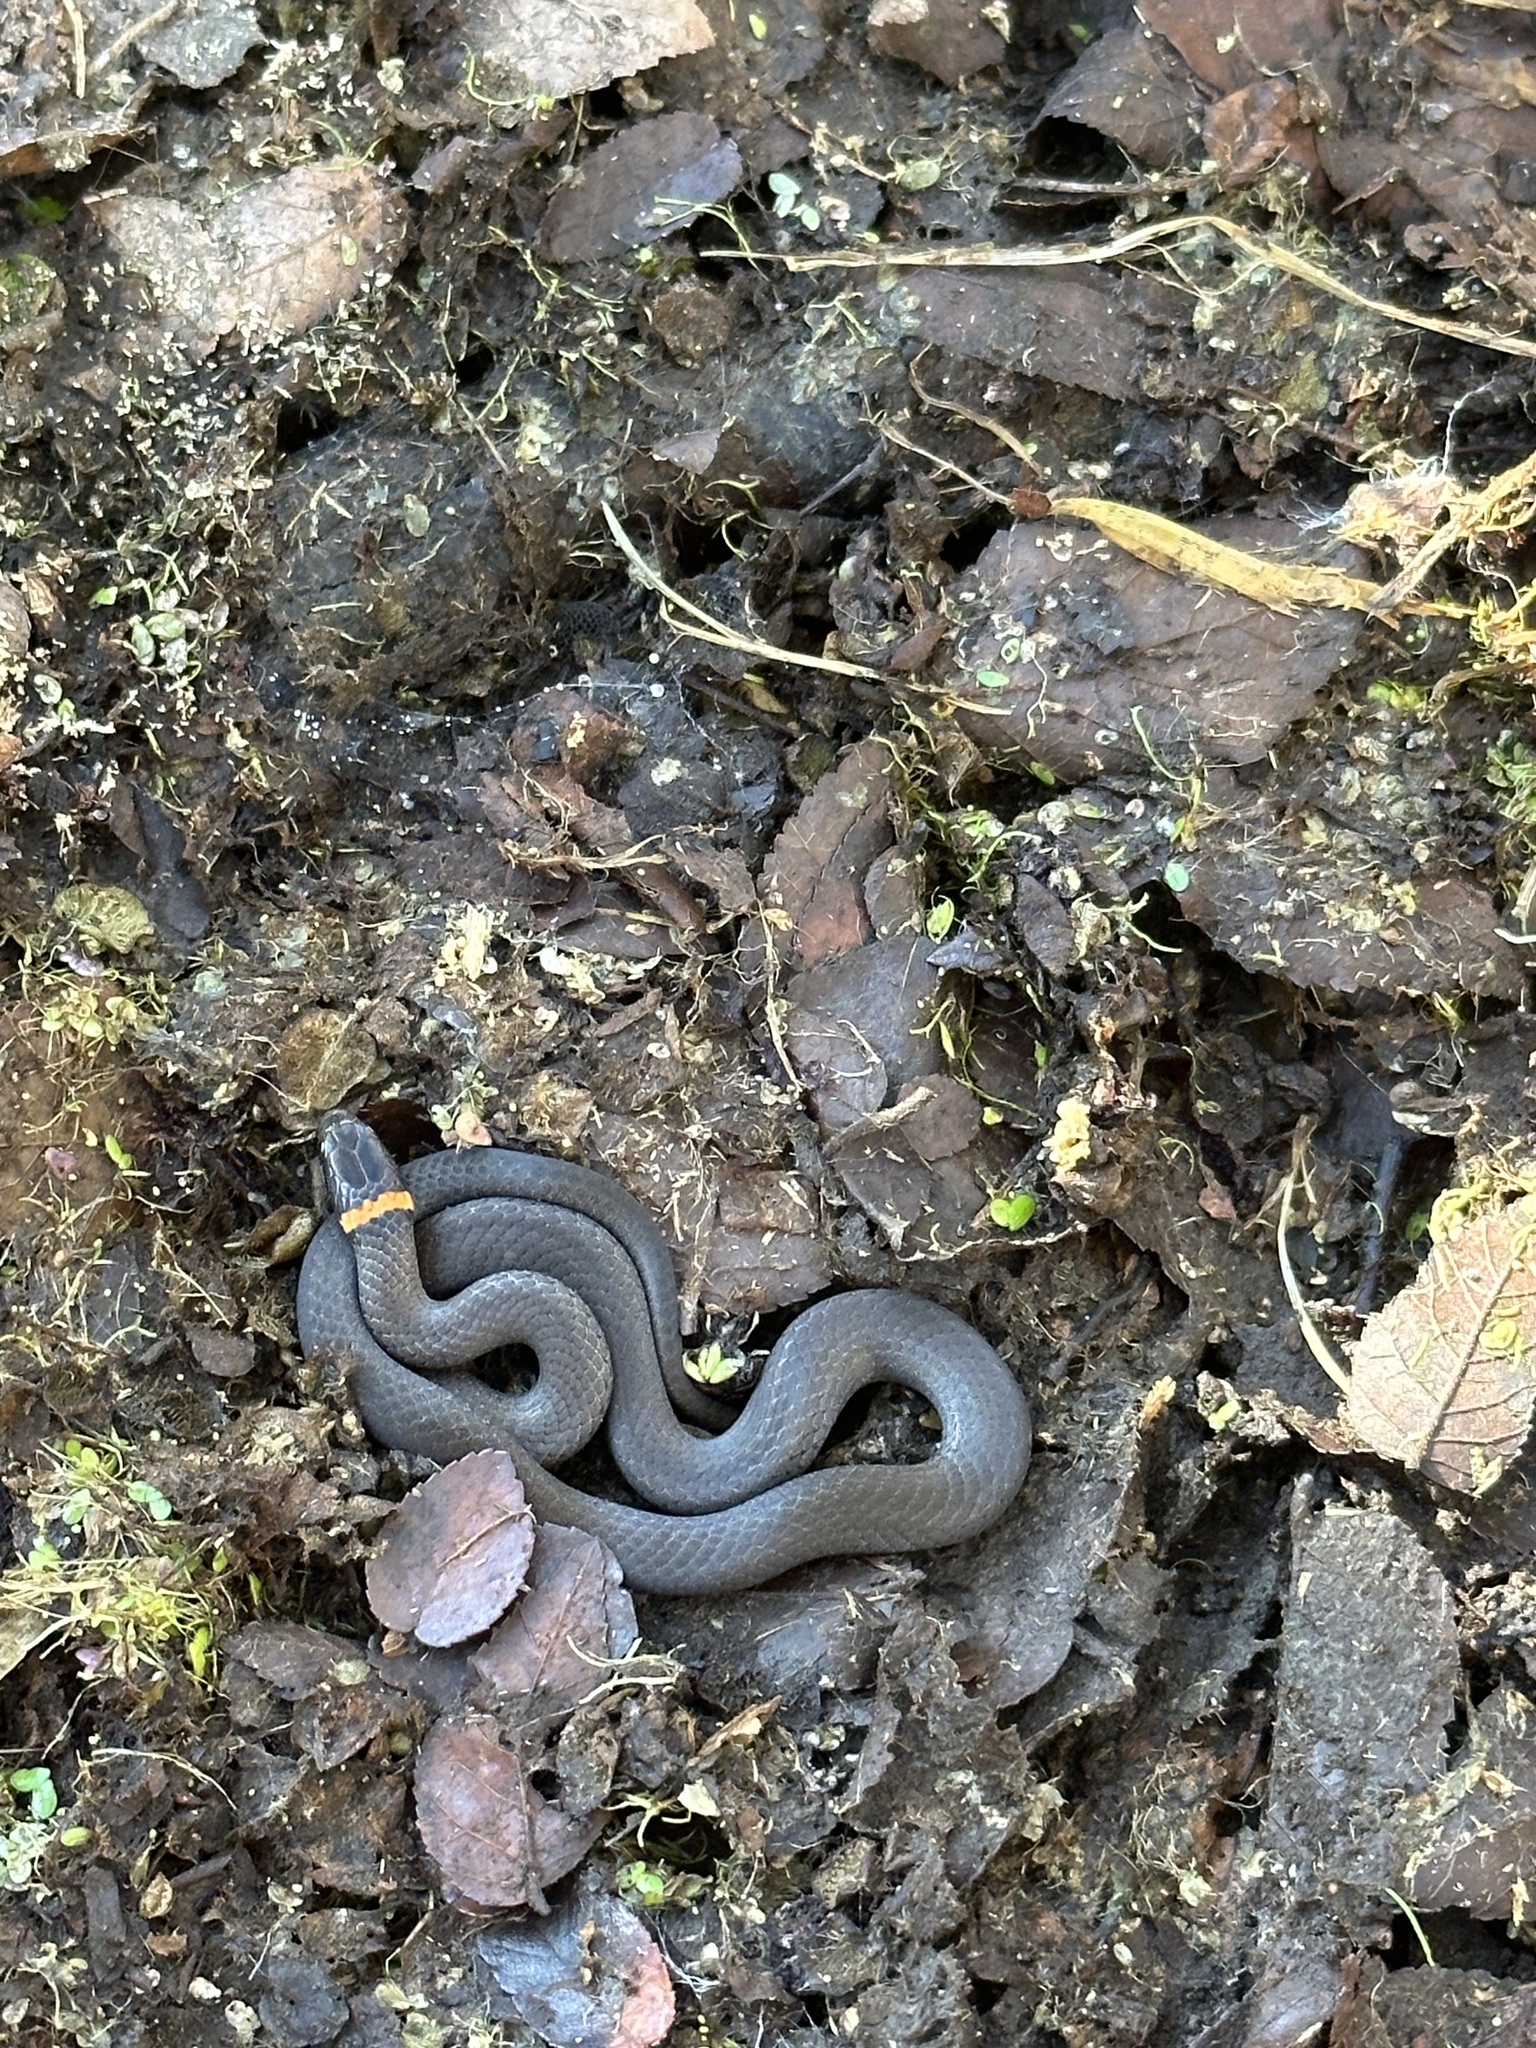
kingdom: Animalia
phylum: Chordata
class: Squamata
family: Colubridae
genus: Diadophis
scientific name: Diadophis punctatus
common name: Ringneck snake
